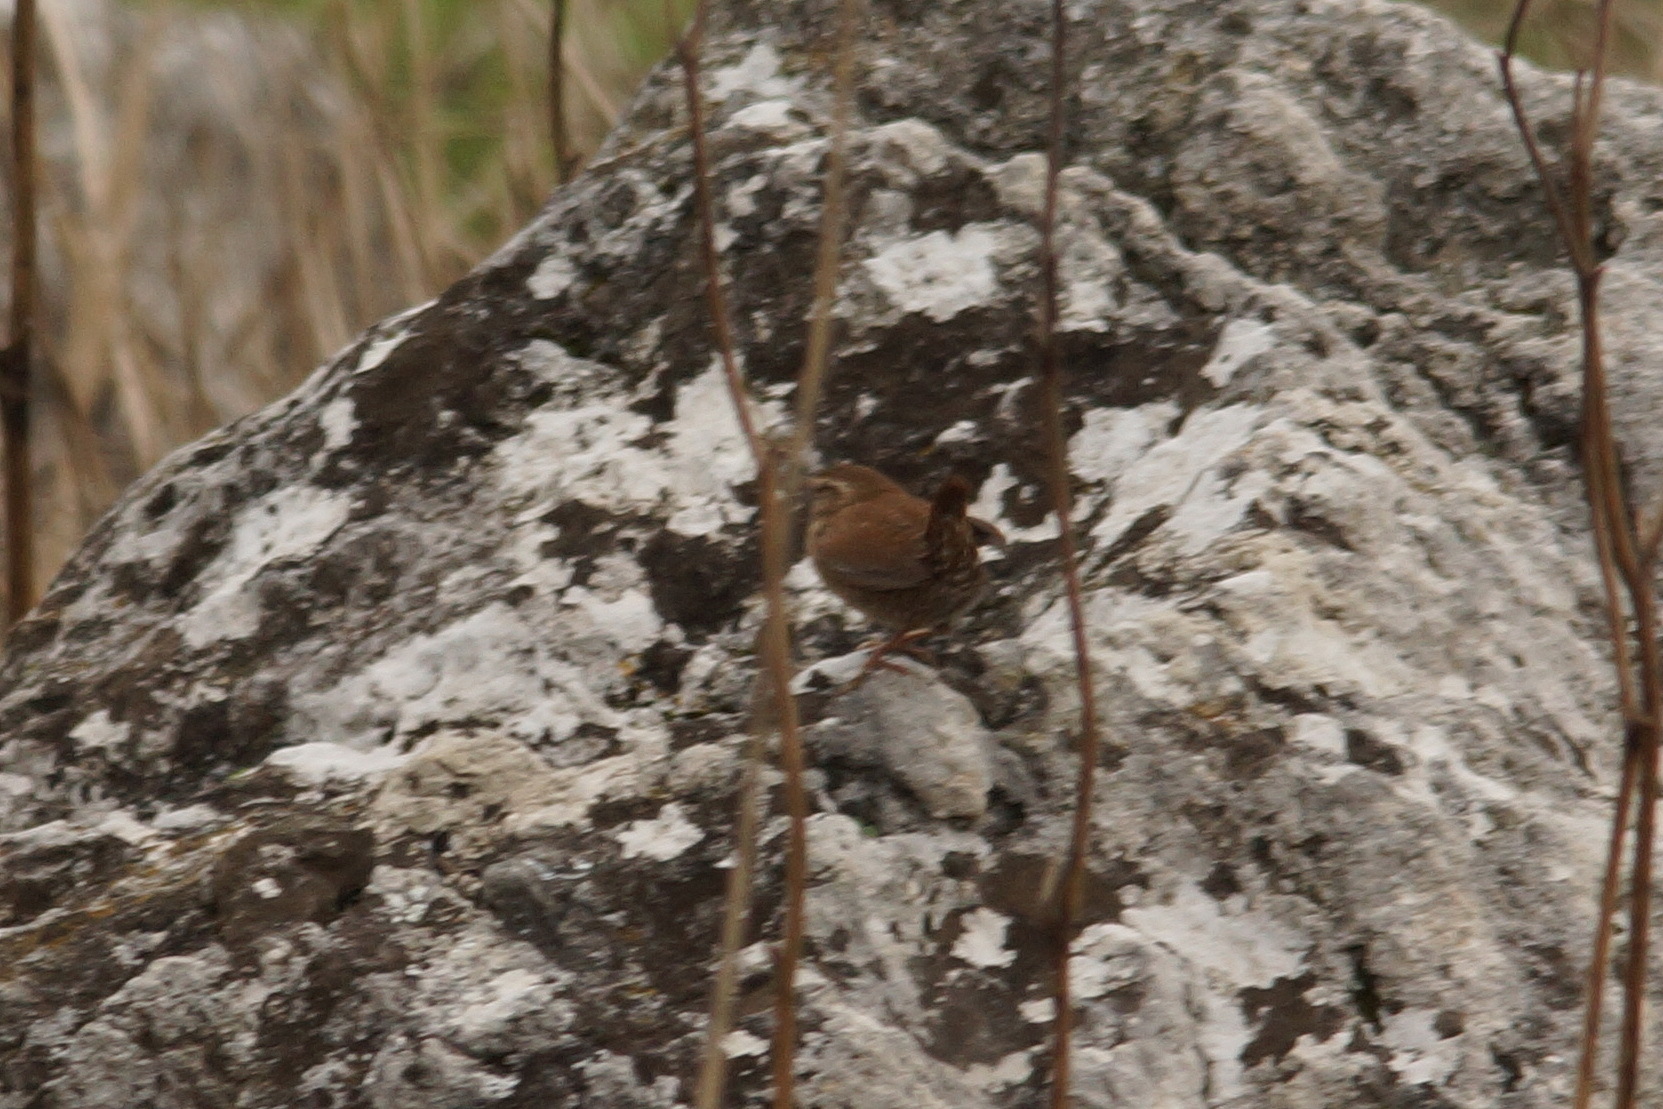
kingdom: Animalia
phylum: Chordata
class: Aves
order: Passeriformes
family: Troglodytidae
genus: Troglodytes
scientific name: Troglodytes troglodytes
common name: Eurasian wren
